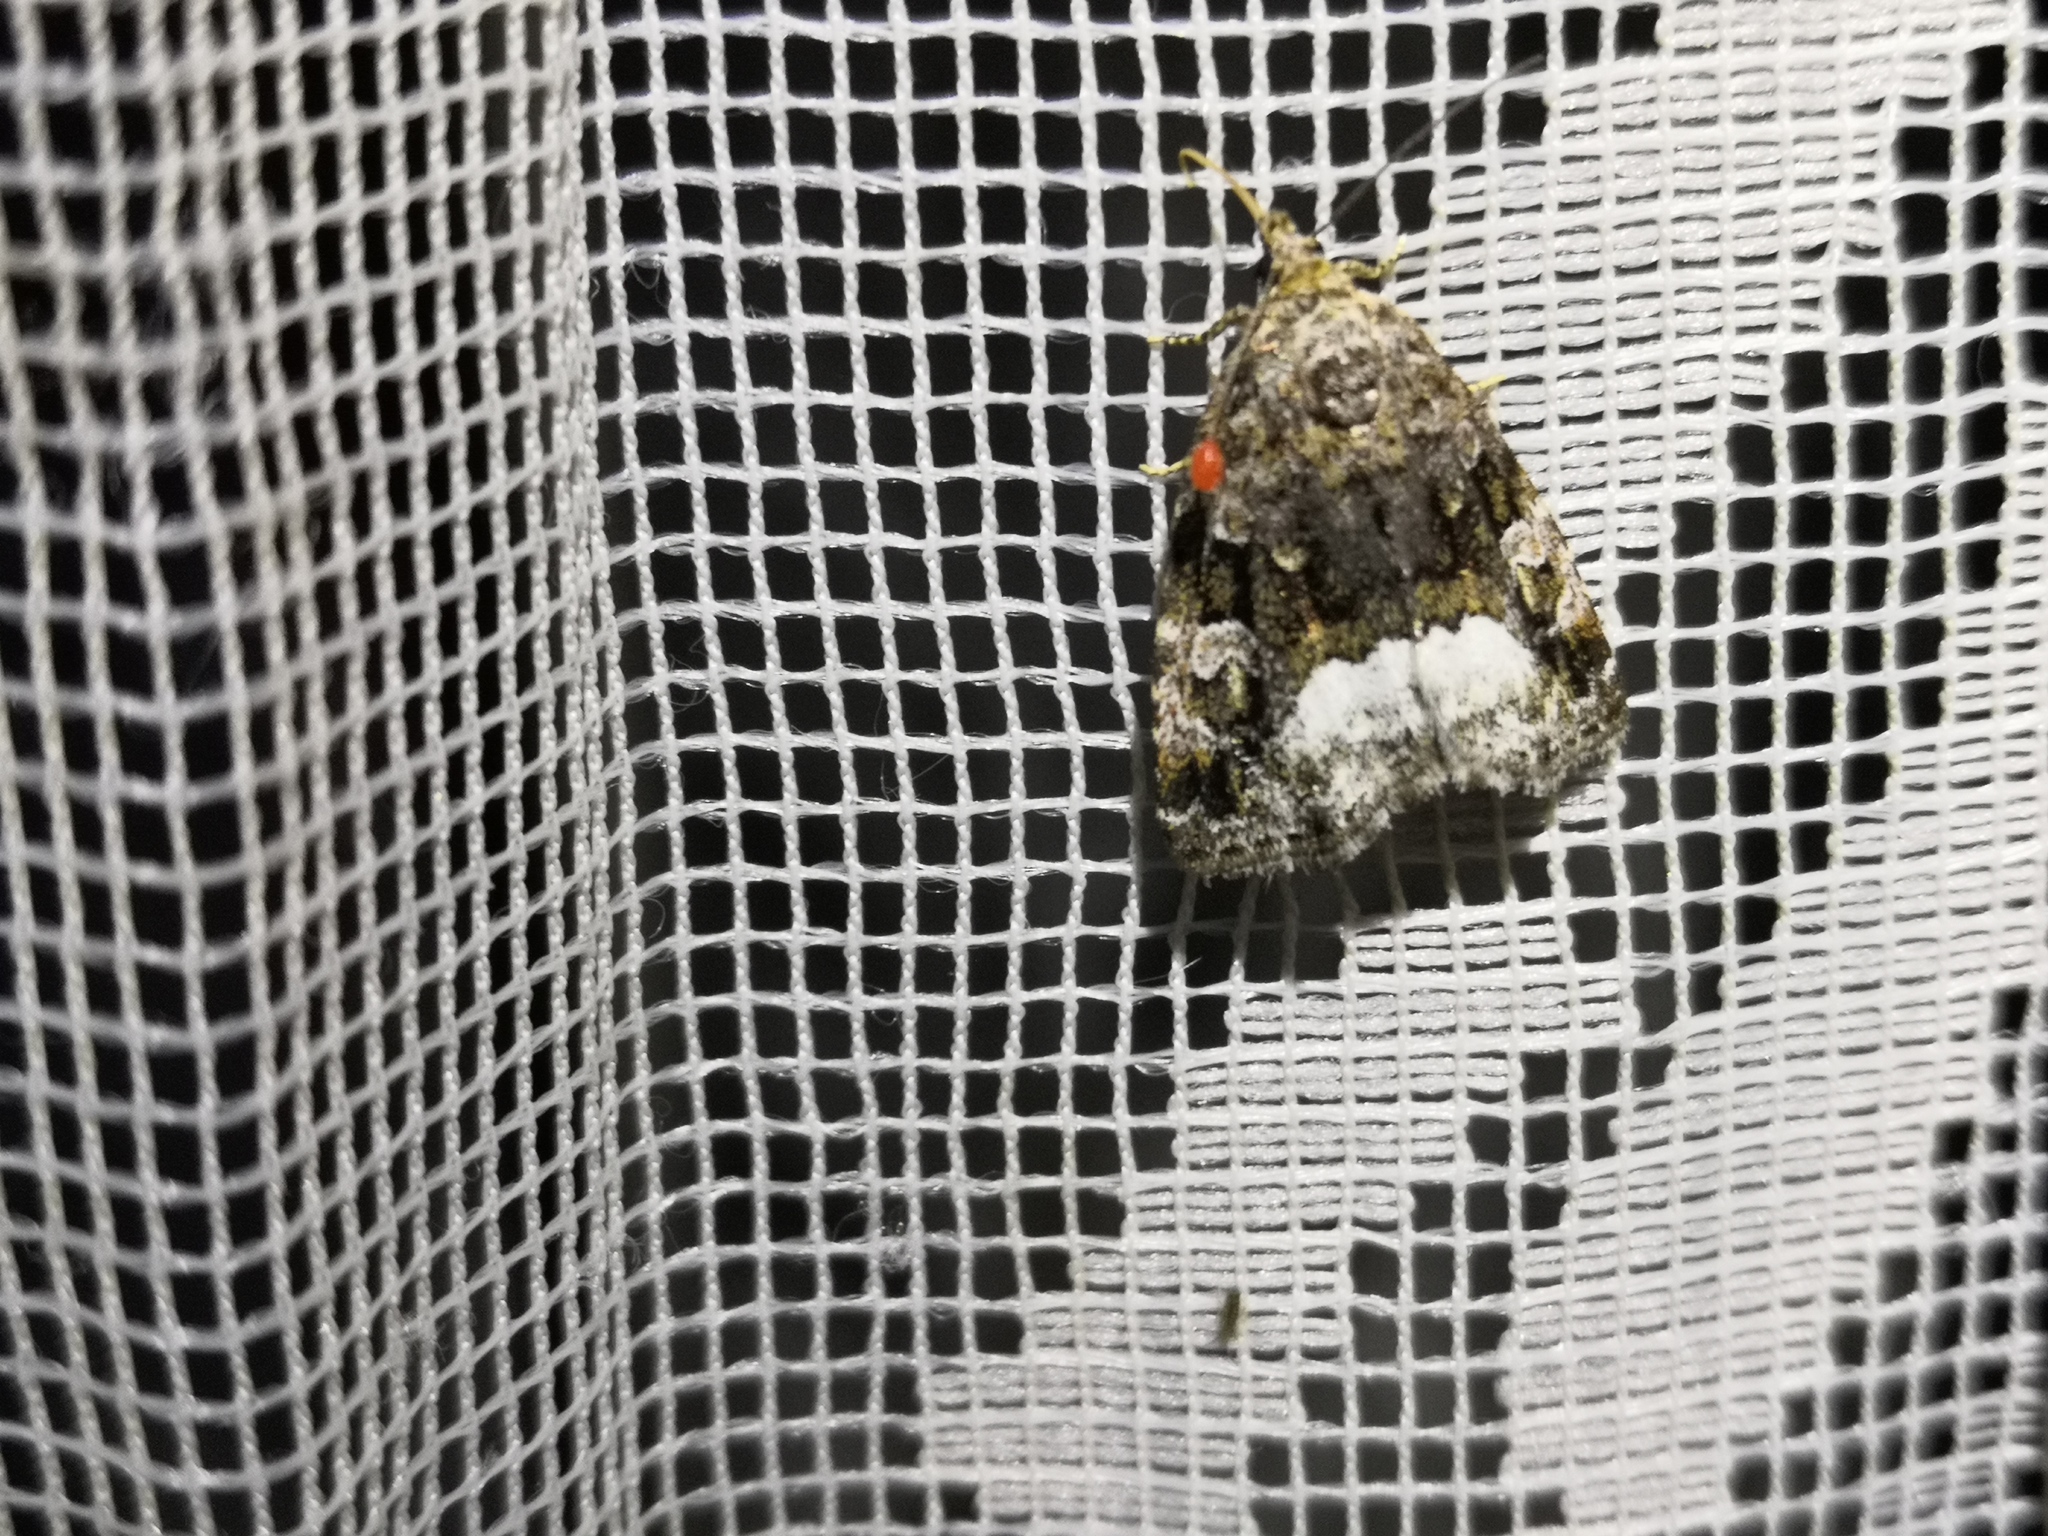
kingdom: Animalia
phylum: Arthropoda
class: Insecta
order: Lepidoptera
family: Noctuidae
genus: Deltote
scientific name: Deltote pygarga
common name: Marbled white spot
